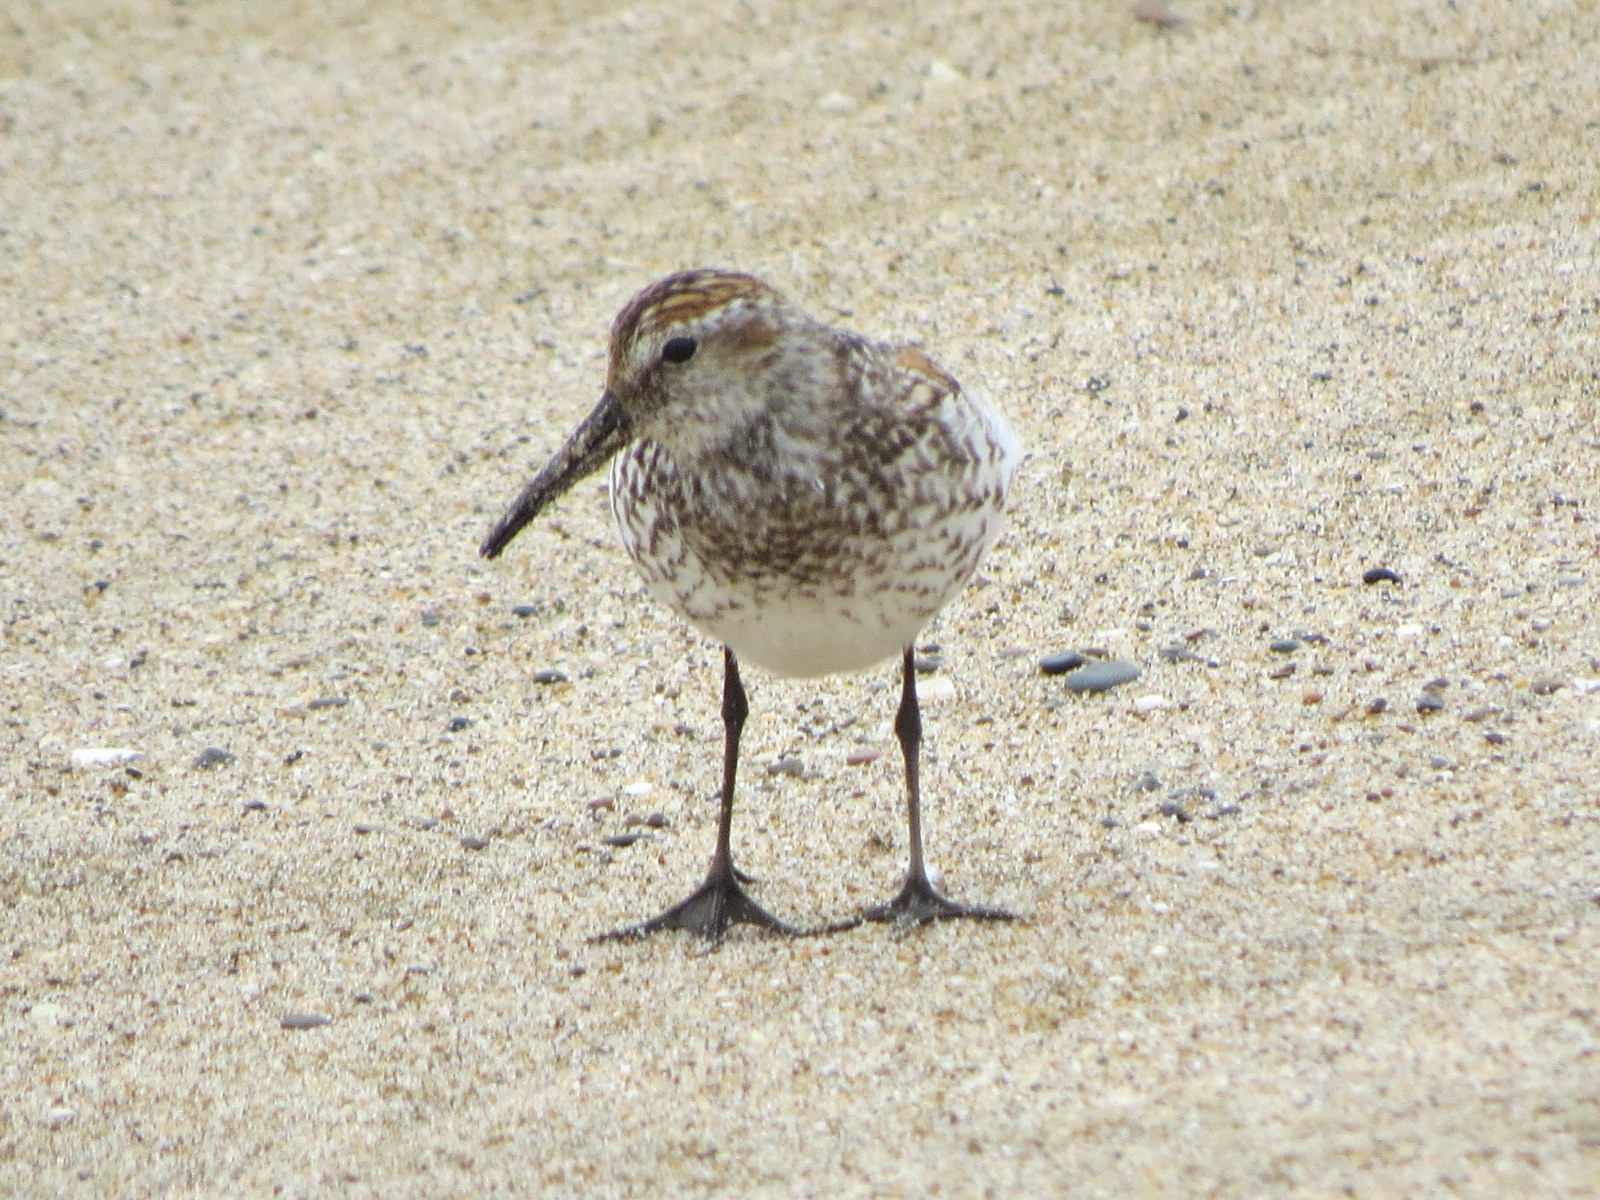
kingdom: Animalia
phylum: Chordata
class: Aves
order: Charadriiformes
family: Scolopacidae
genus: Calidris
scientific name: Calidris mauri
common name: Western sandpiper
